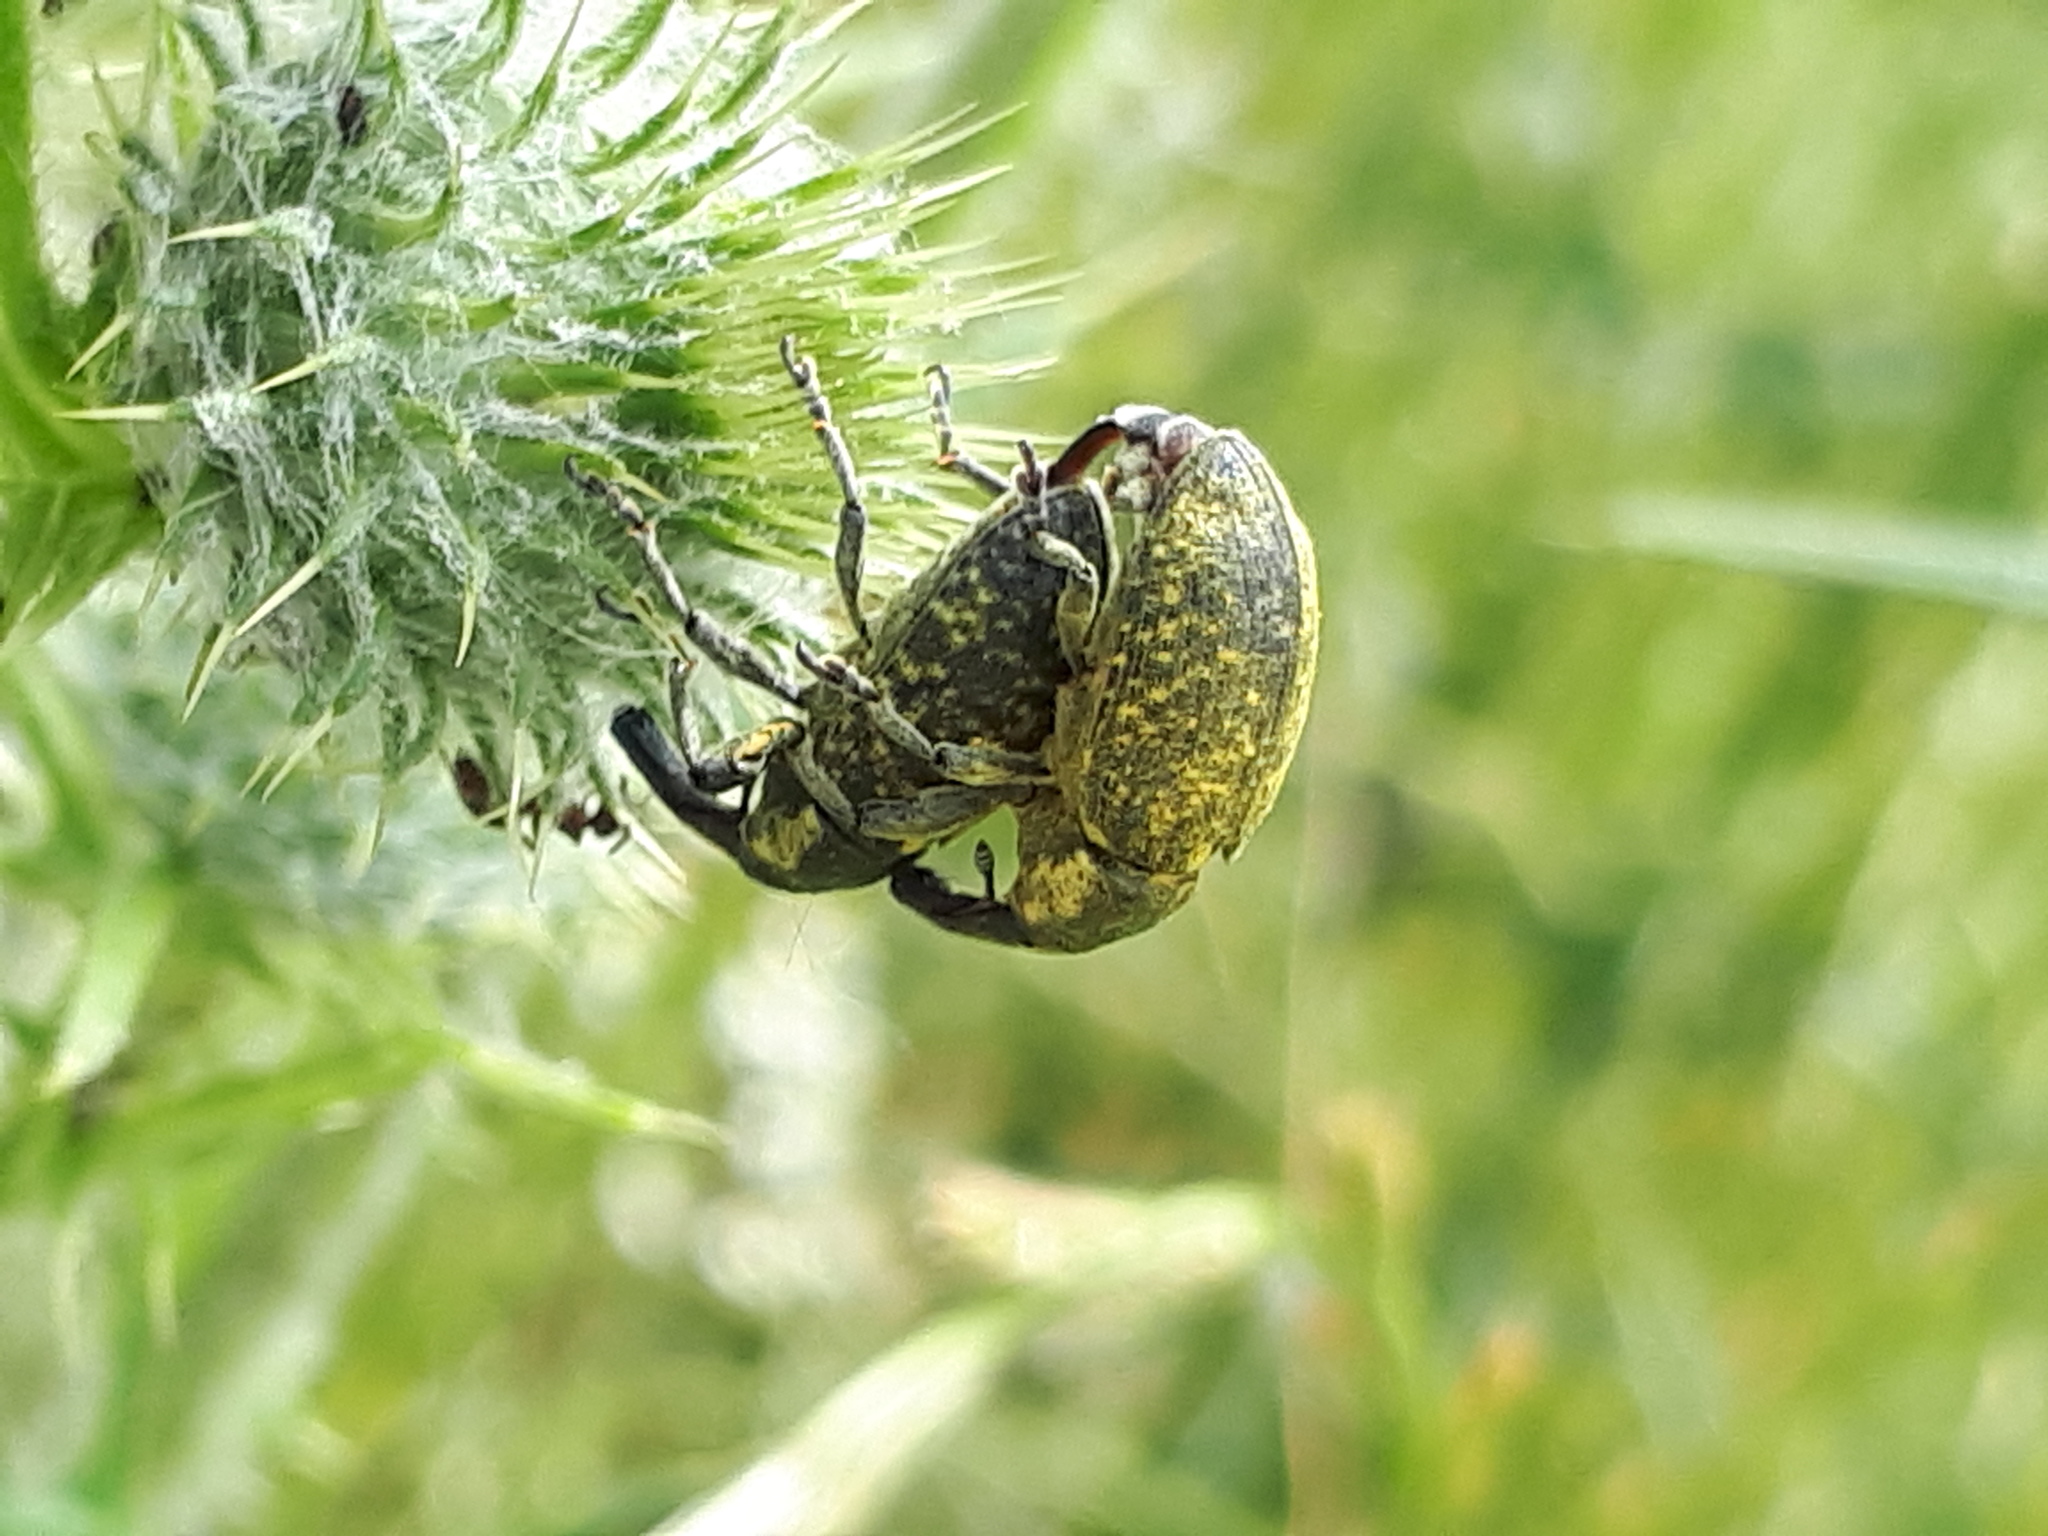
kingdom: Animalia
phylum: Arthropoda
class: Insecta
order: Coleoptera
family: Curculionidae
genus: Larinus
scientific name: Larinus sturnus
